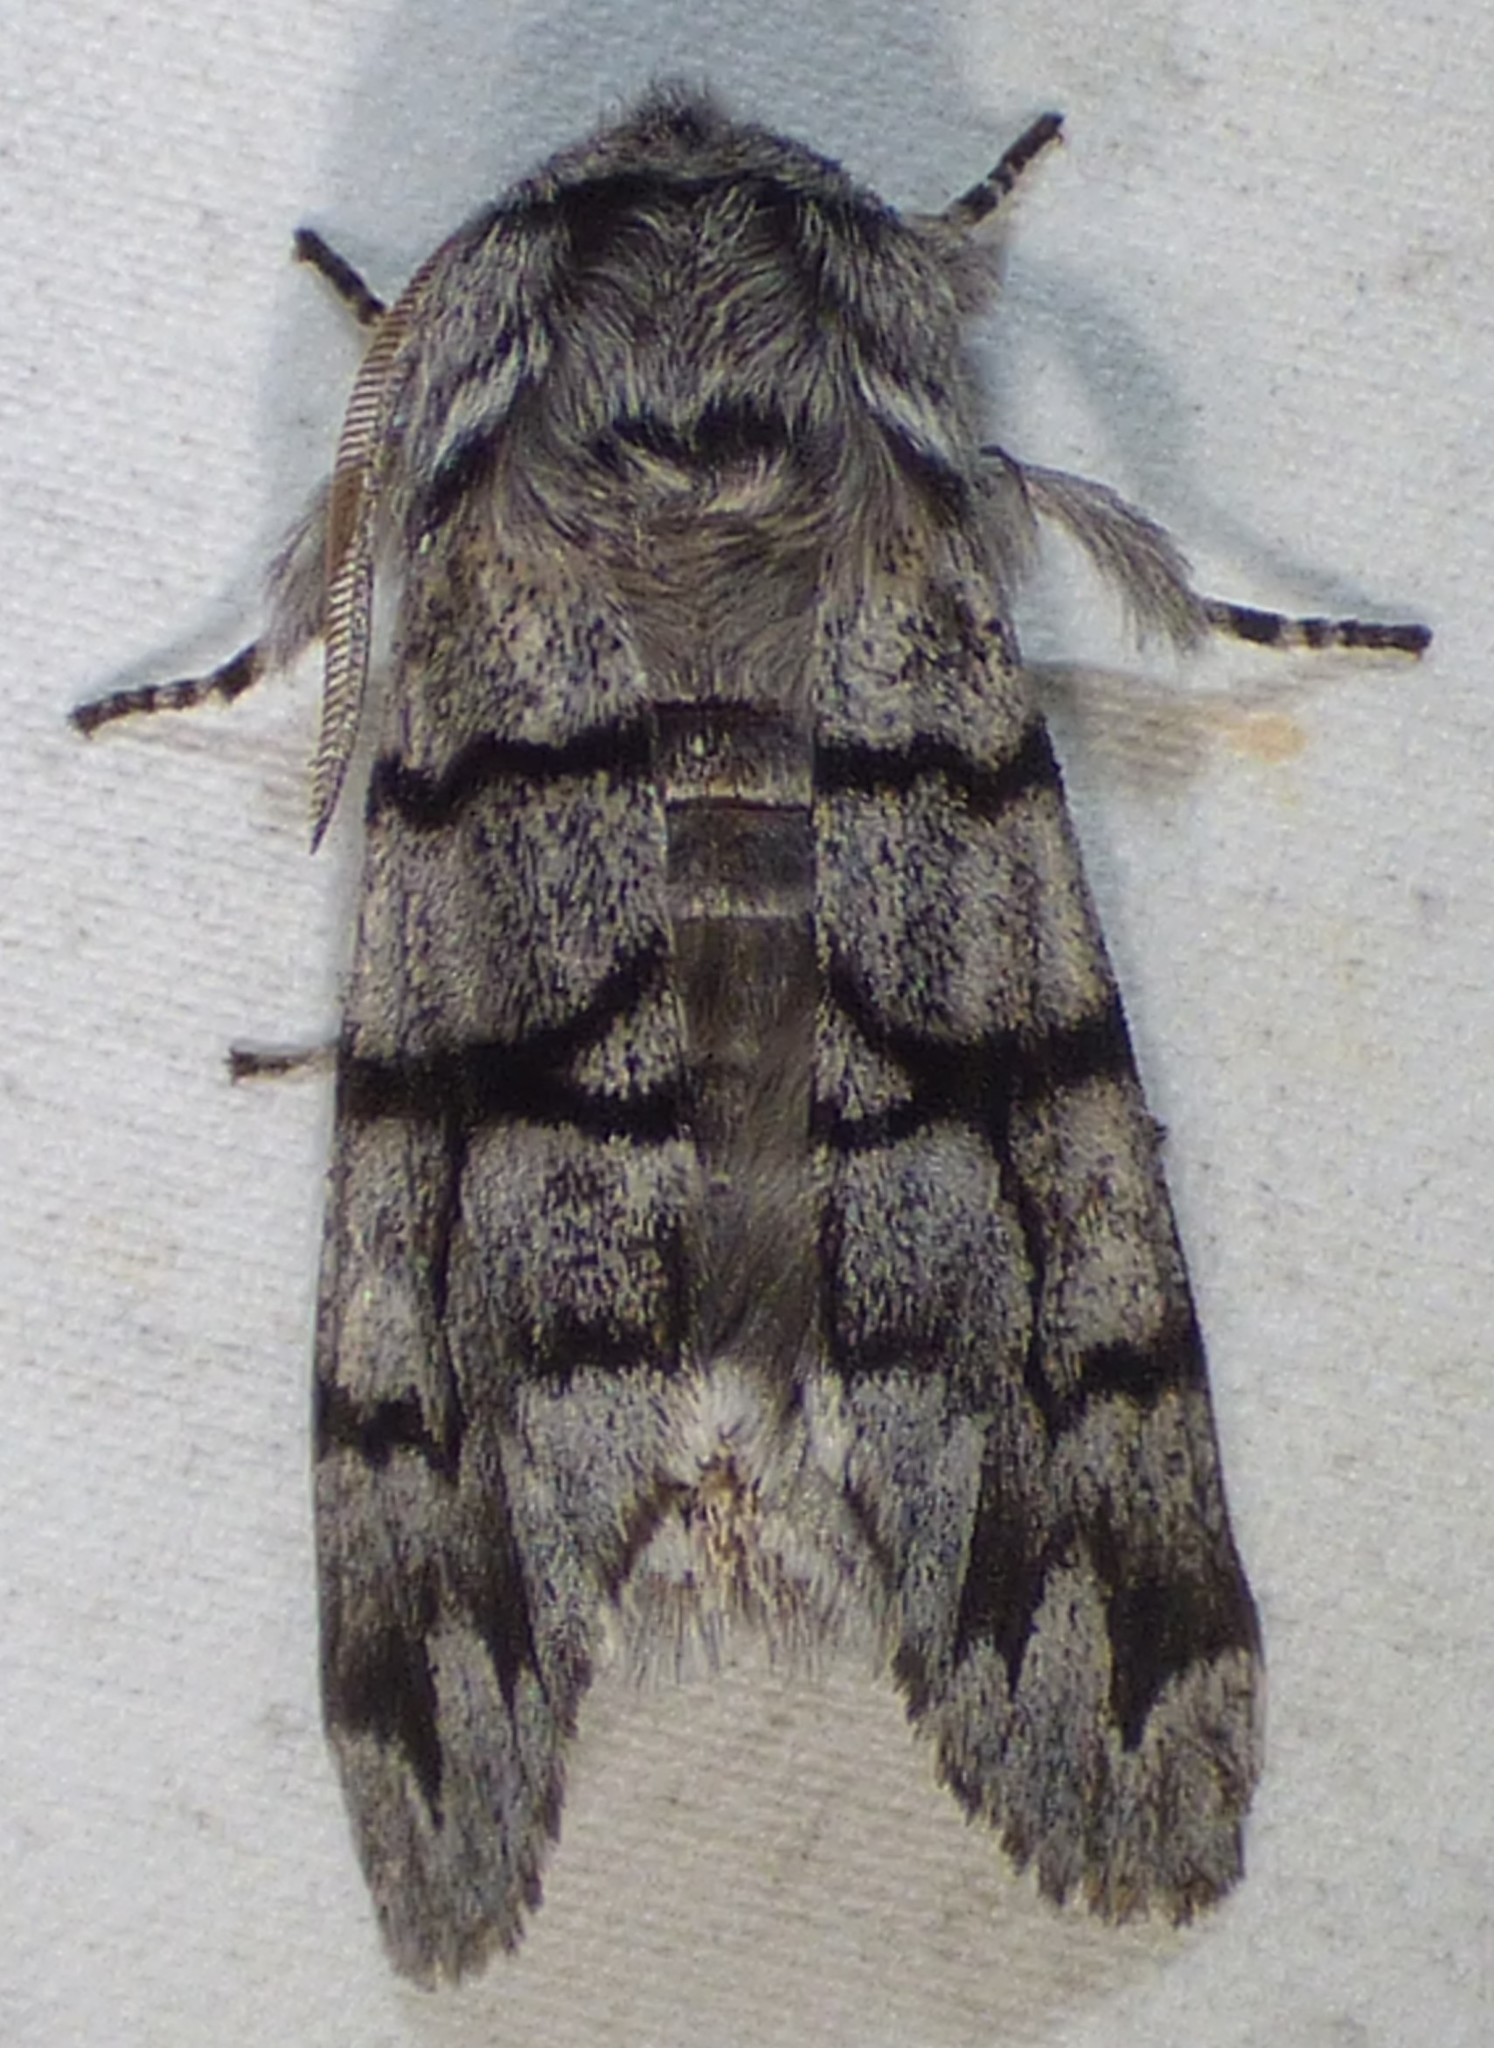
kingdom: Animalia
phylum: Arthropoda
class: Insecta
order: Lepidoptera
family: Noctuidae
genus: Panthea
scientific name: Panthea furcilla
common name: Eastern panthea moth
